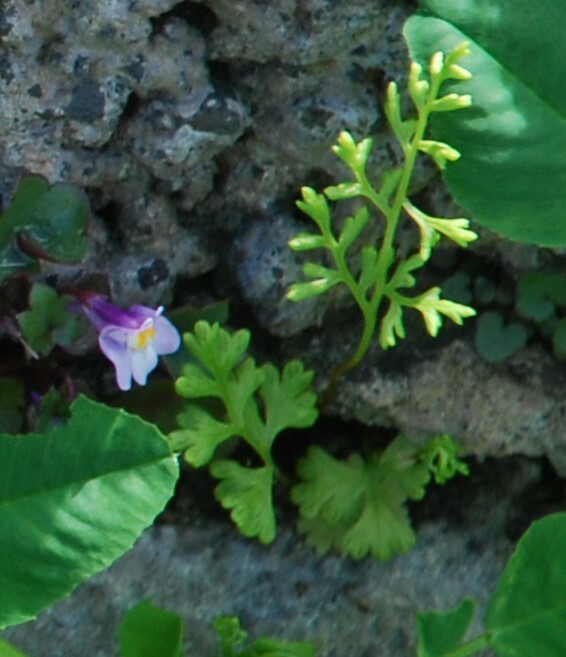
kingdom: Plantae
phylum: Tracheophyta
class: Polypodiopsida
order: Polypodiales
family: Pteridaceae
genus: Anogramma
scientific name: Anogramma leptophylla
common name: Jersey fern
